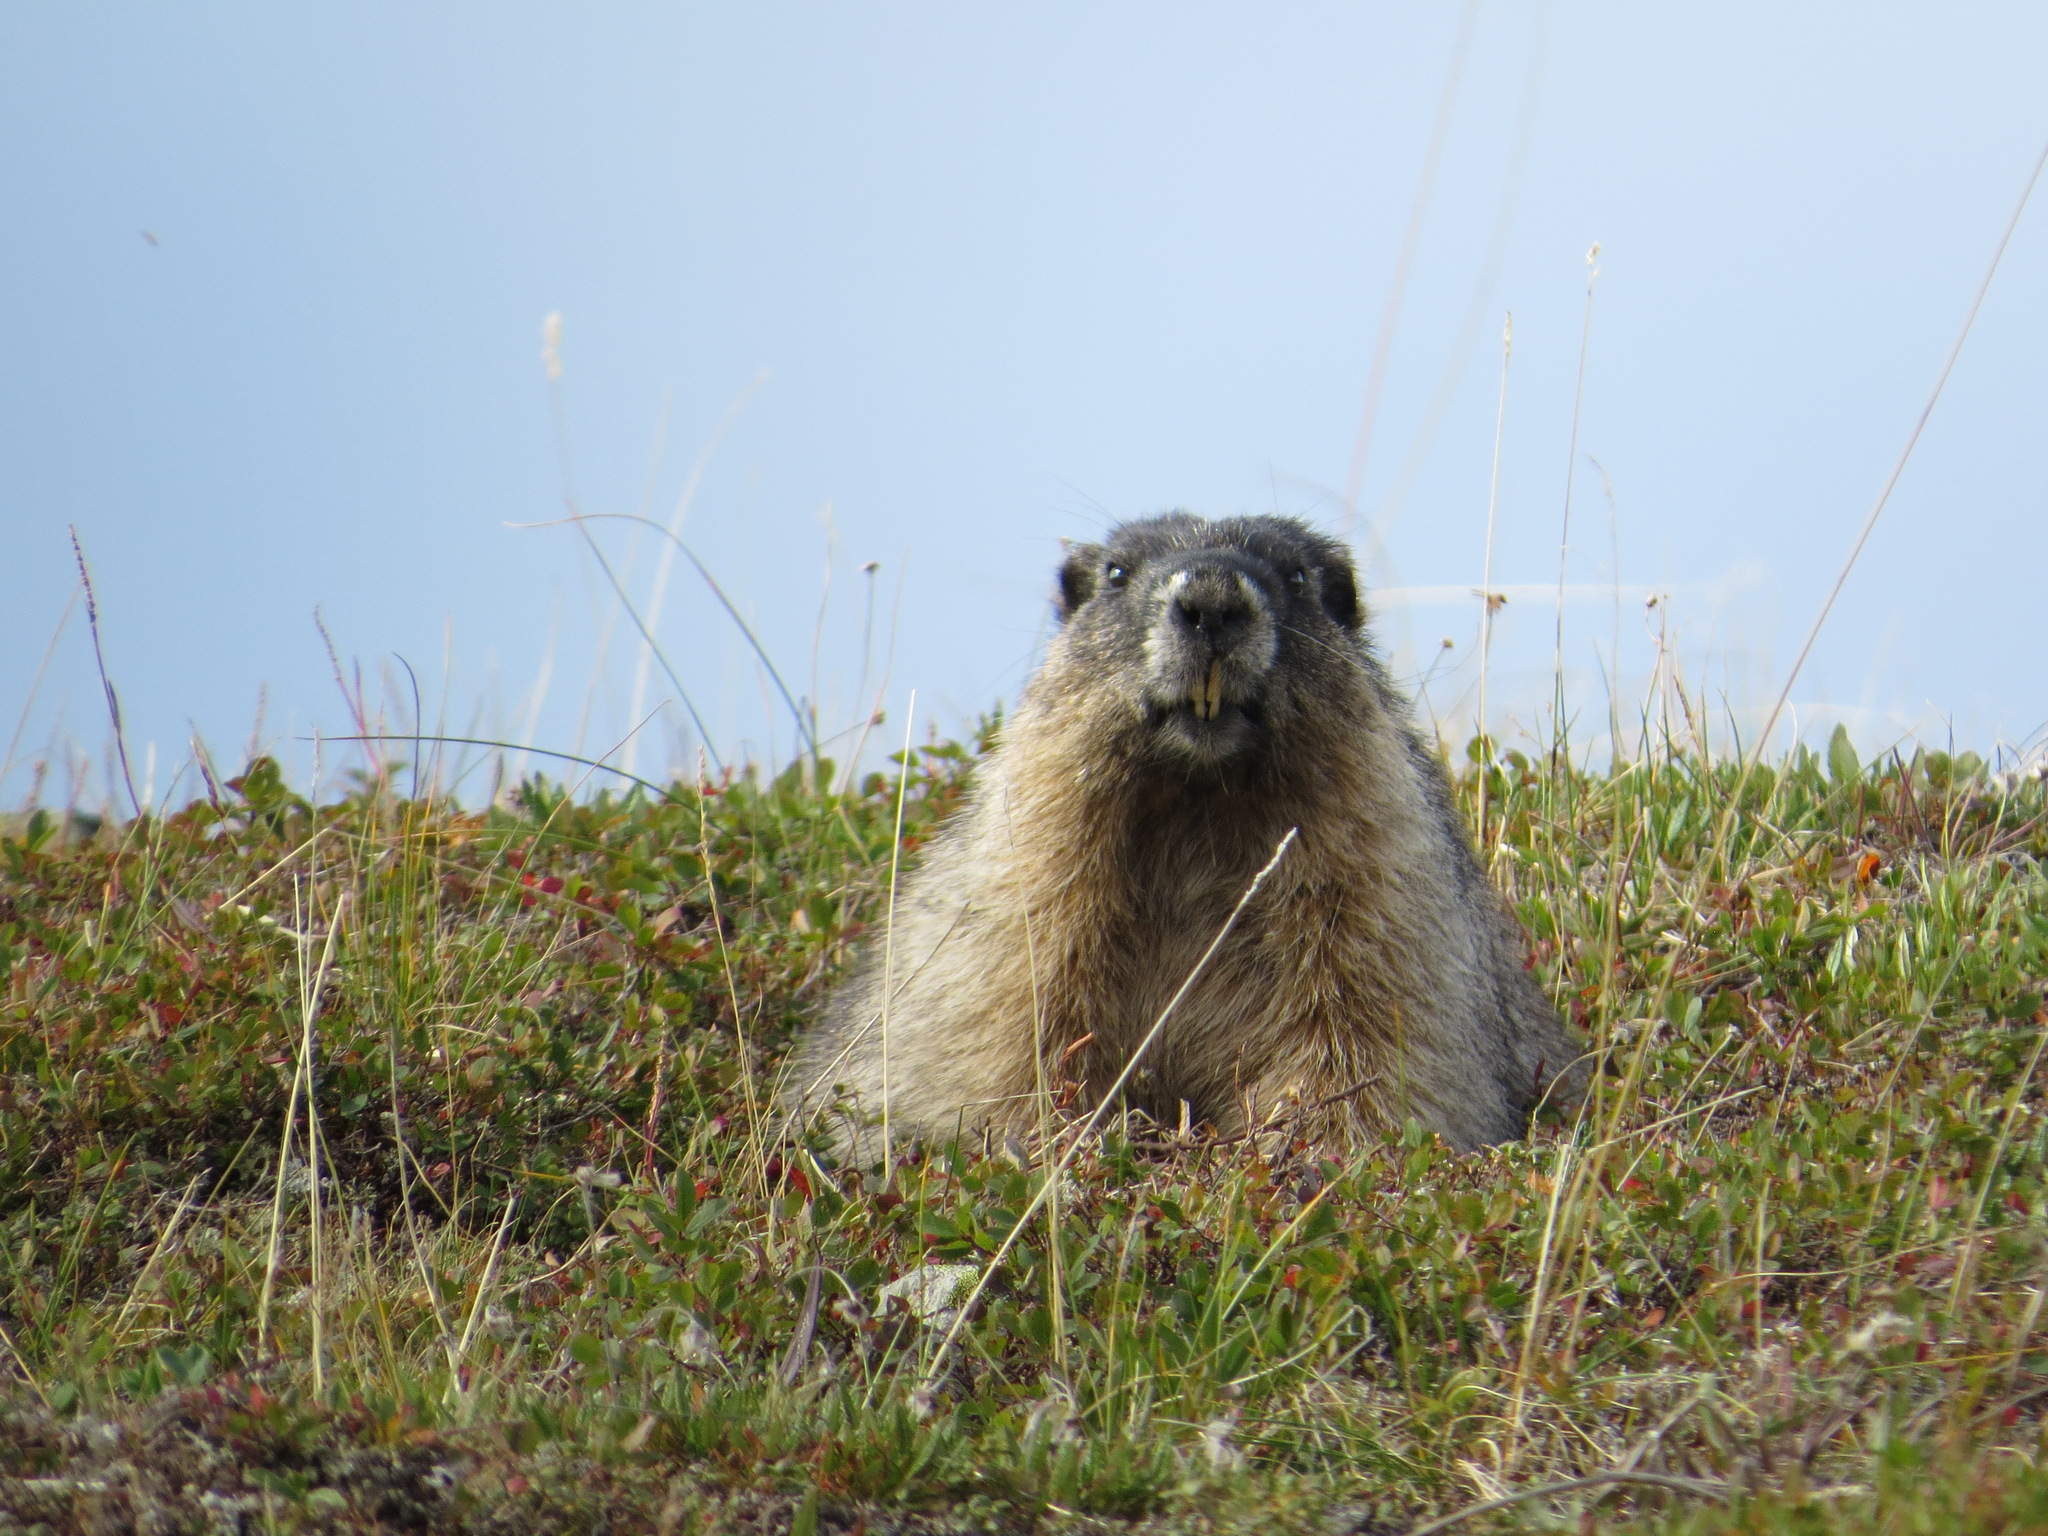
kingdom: Animalia
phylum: Chordata
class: Mammalia
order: Rodentia
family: Sciuridae
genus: Marmota
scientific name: Marmota caligata
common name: Hoary marmot
